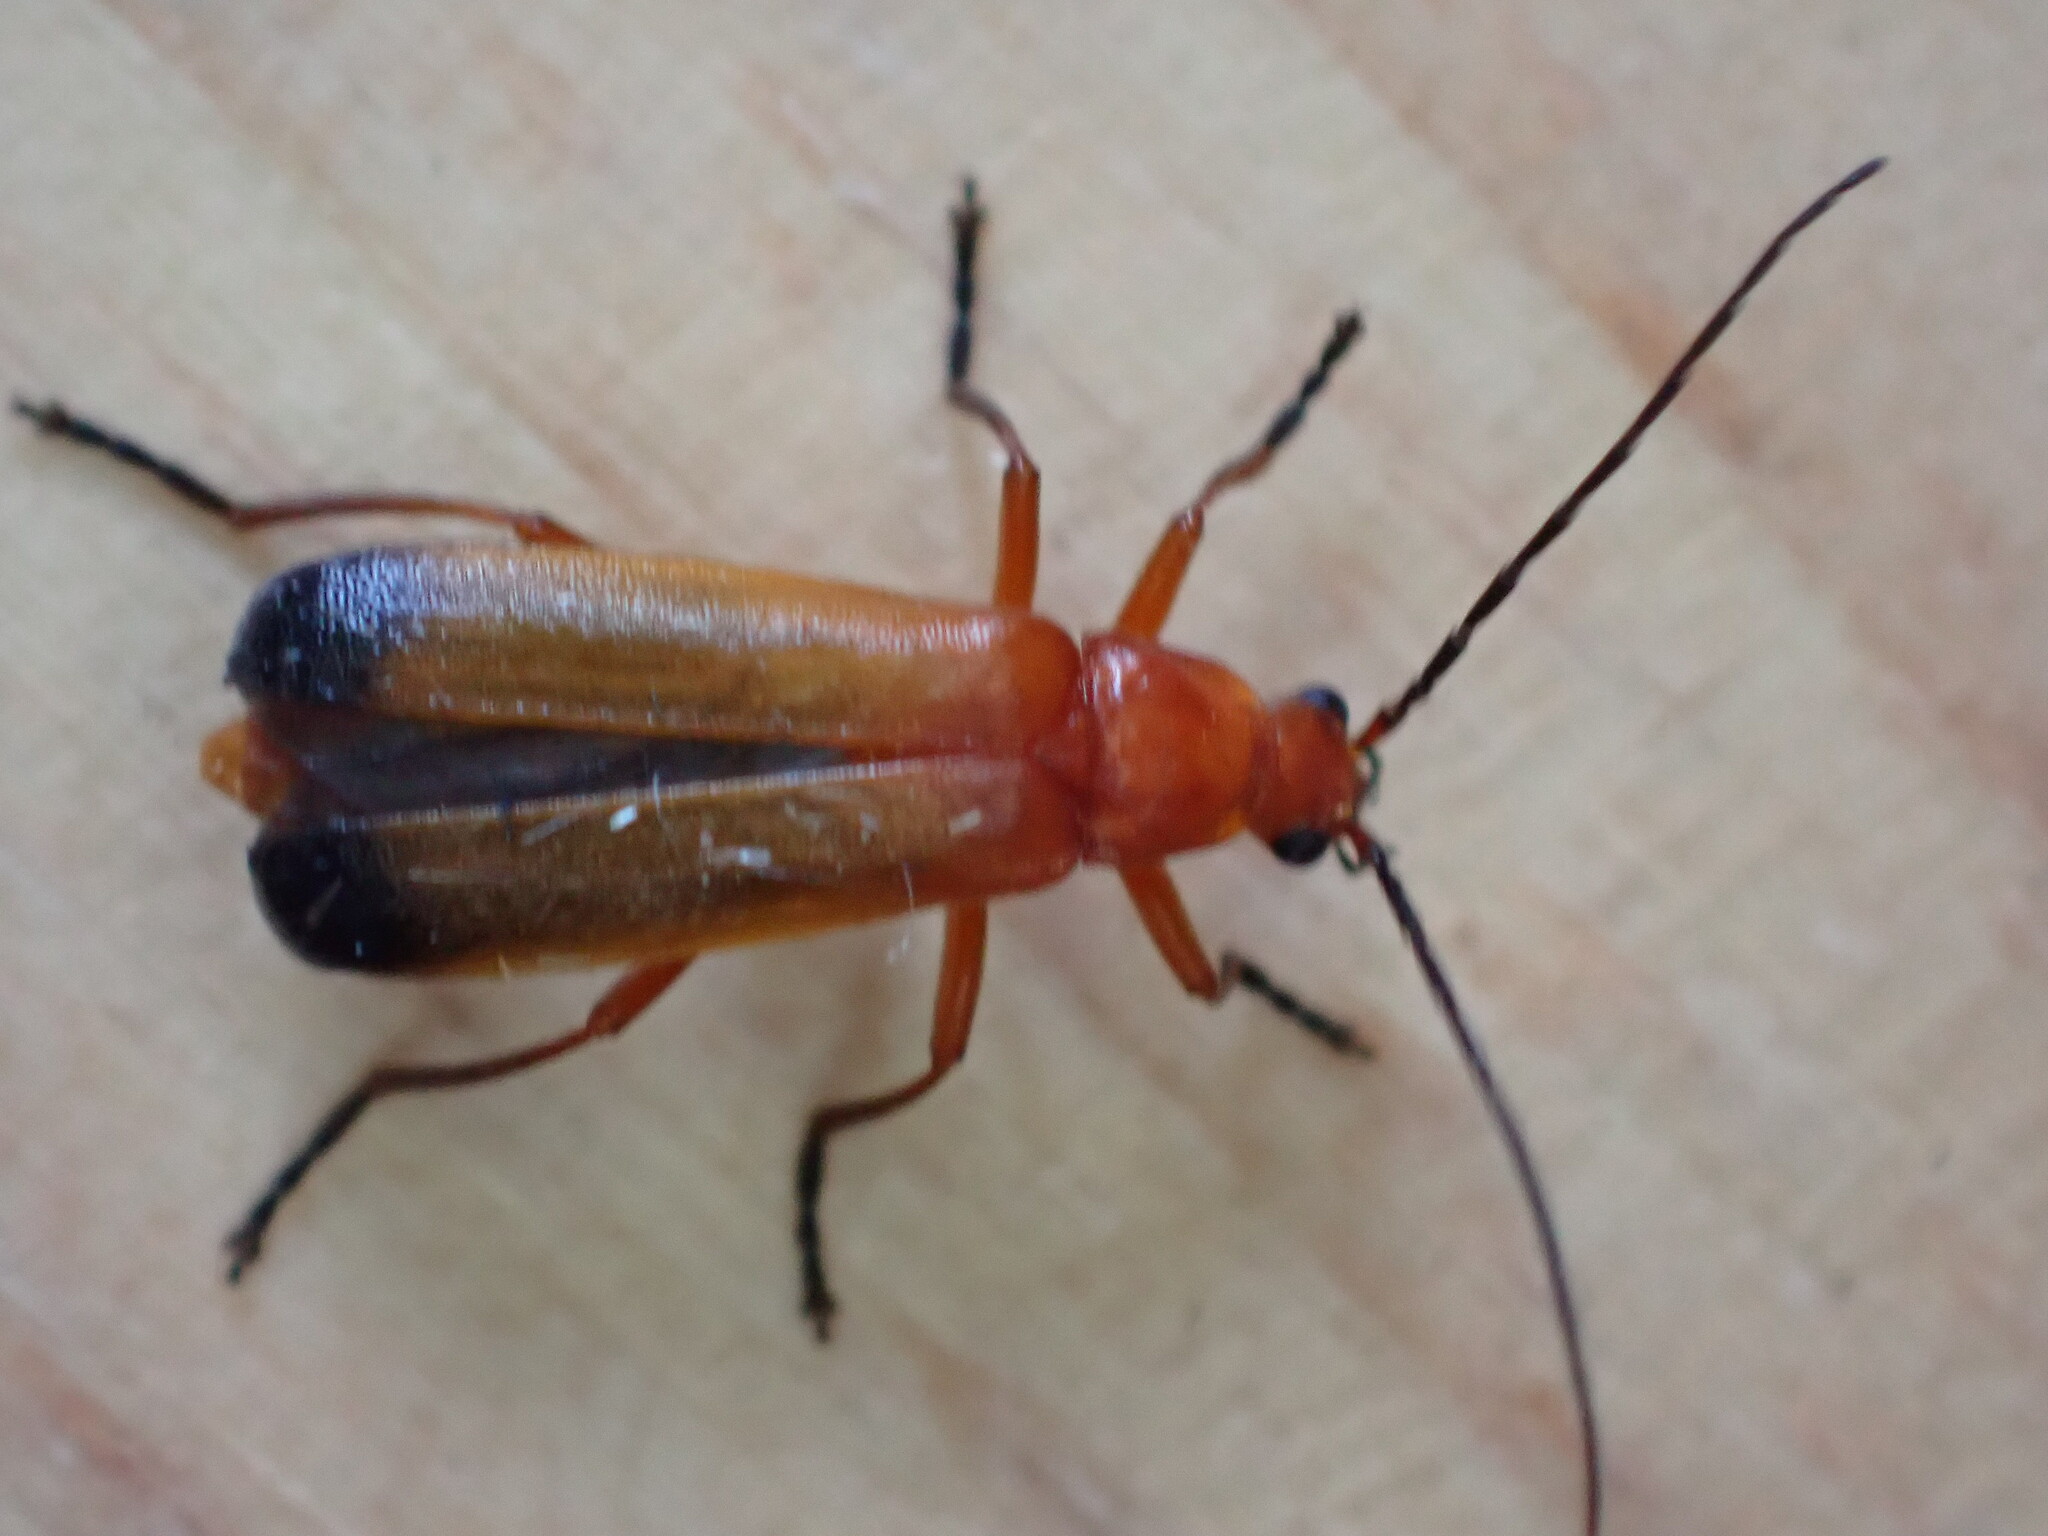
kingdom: Animalia
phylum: Arthropoda
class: Insecta
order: Coleoptera
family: Cantharidae
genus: Rhagonycha
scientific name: Rhagonycha fulva
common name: Common red soldier beetle
